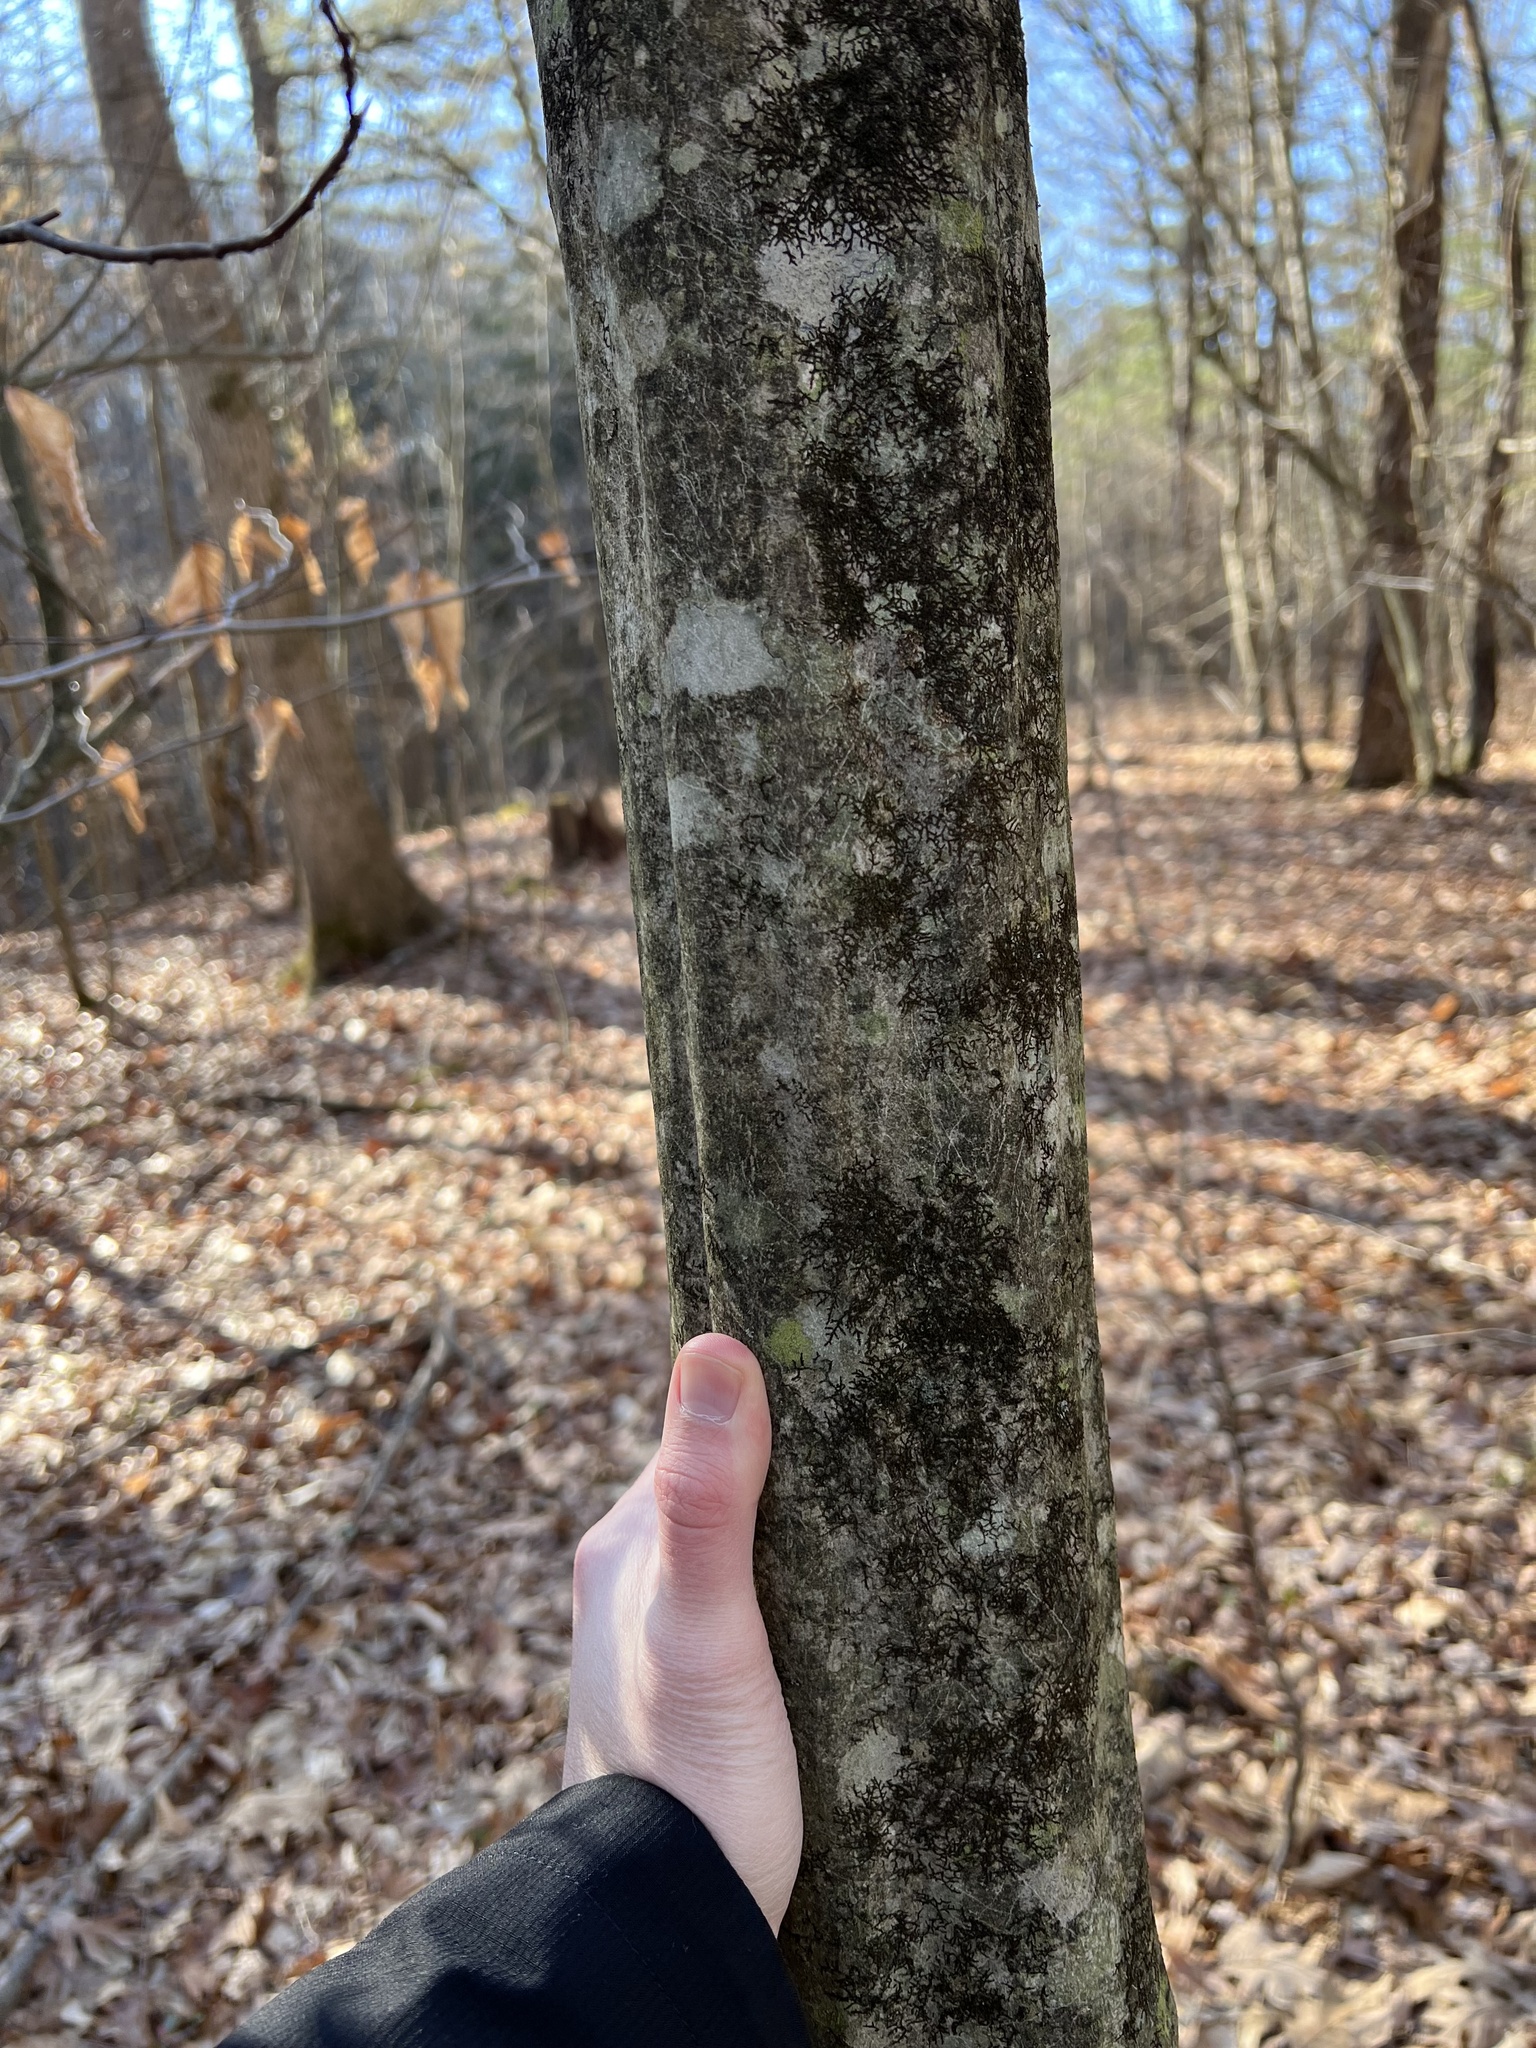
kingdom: Plantae
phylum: Tracheophyta
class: Magnoliopsida
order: Fagales
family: Betulaceae
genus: Carpinus
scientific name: Carpinus caroliniana
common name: American hornbeam
